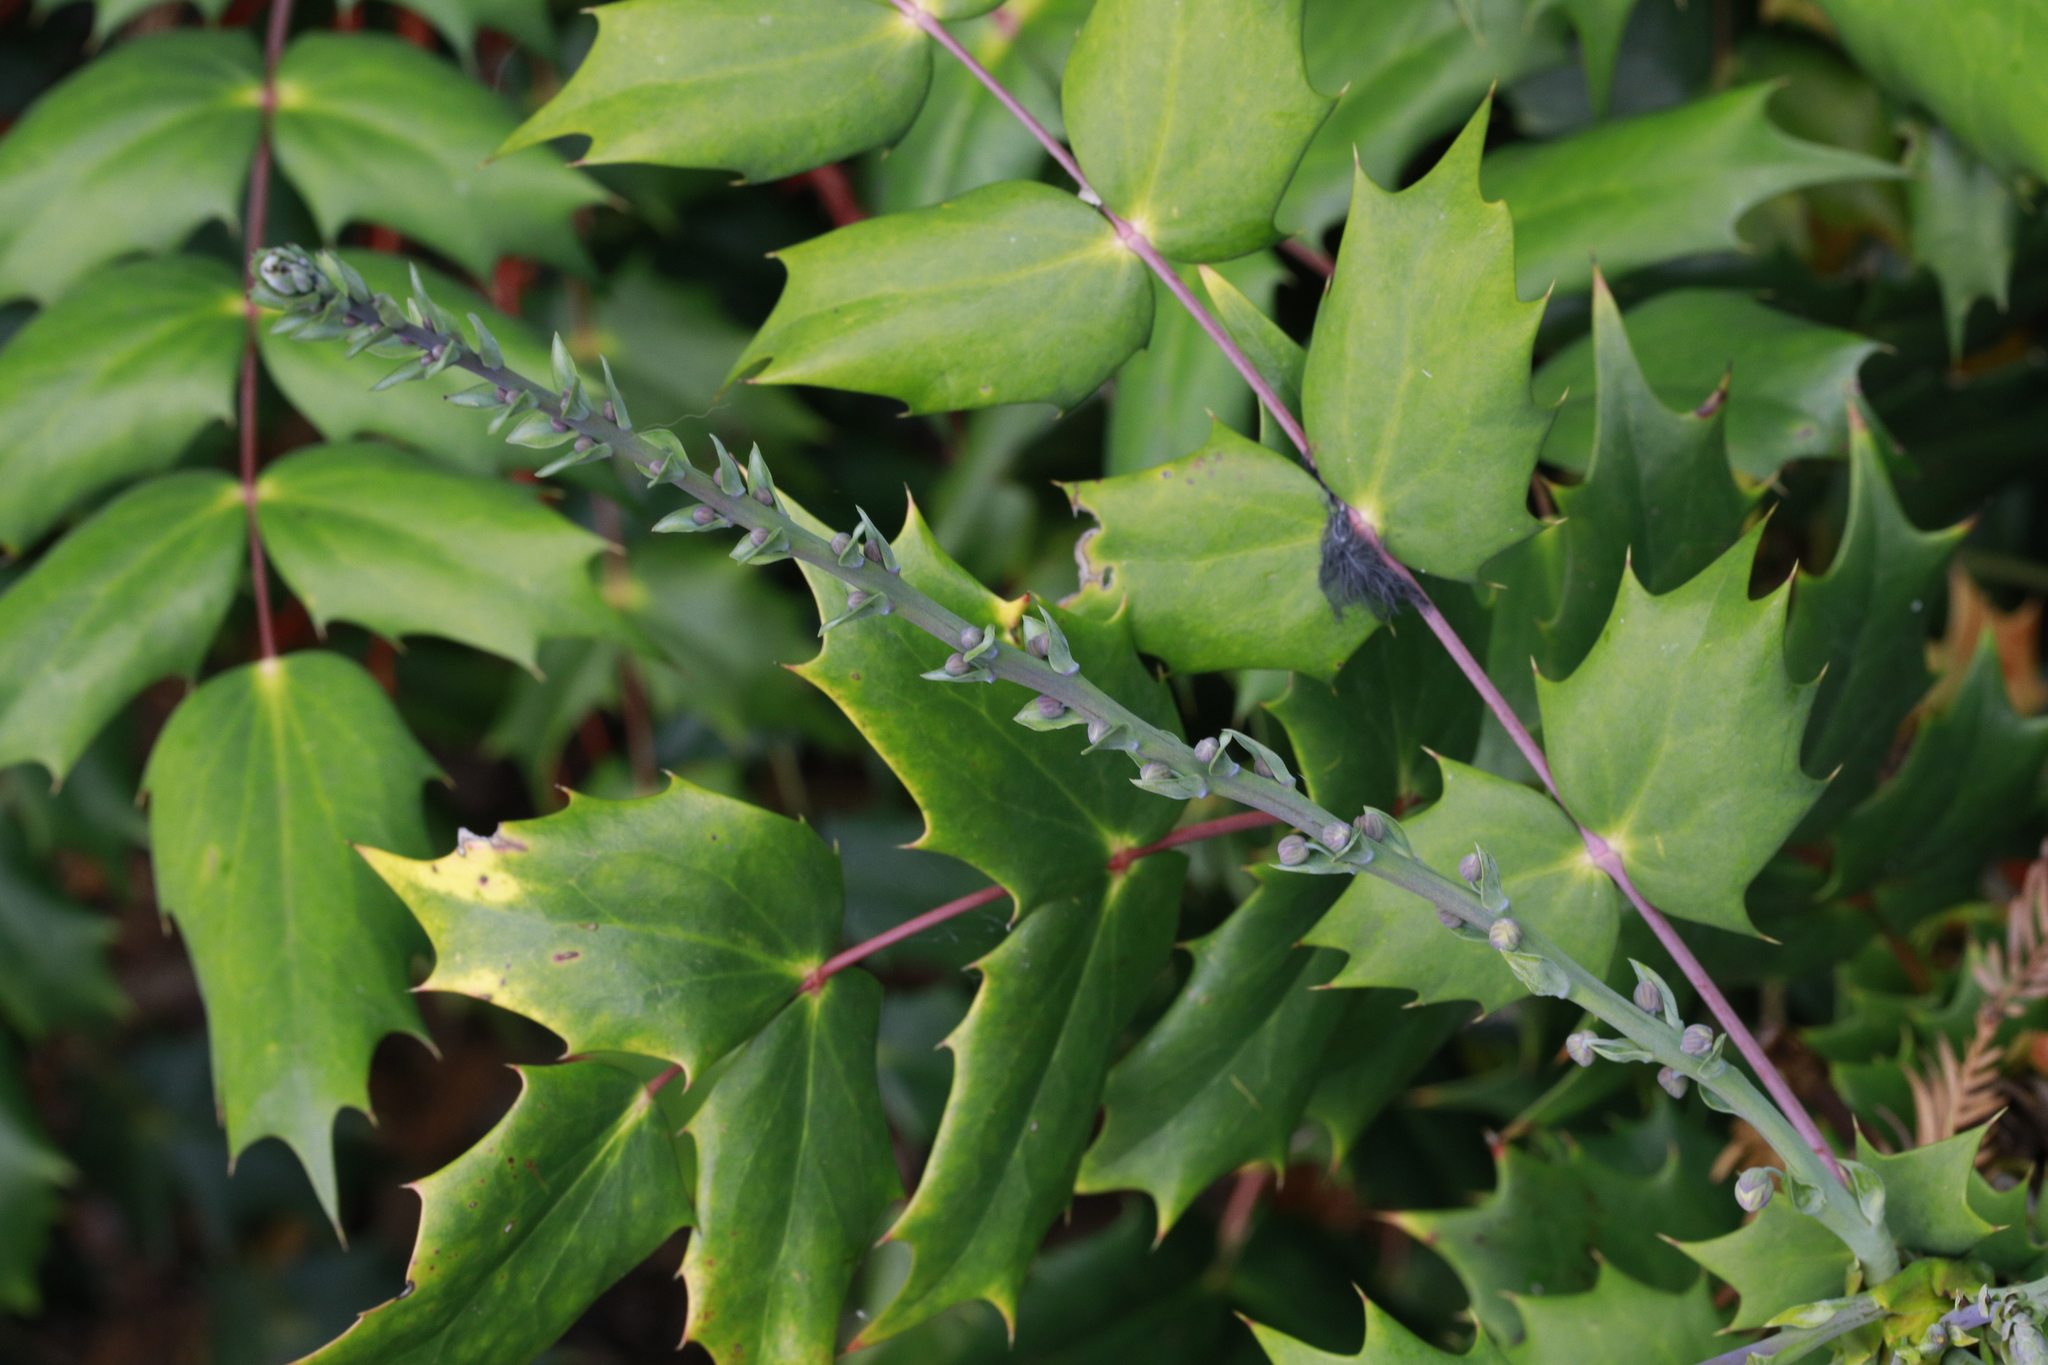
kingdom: Plantae
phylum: Tracheophyta
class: Magnoliopsida
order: Ranunculales
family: Berberidaceae
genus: Mahonia
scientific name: Mahonia bealei
